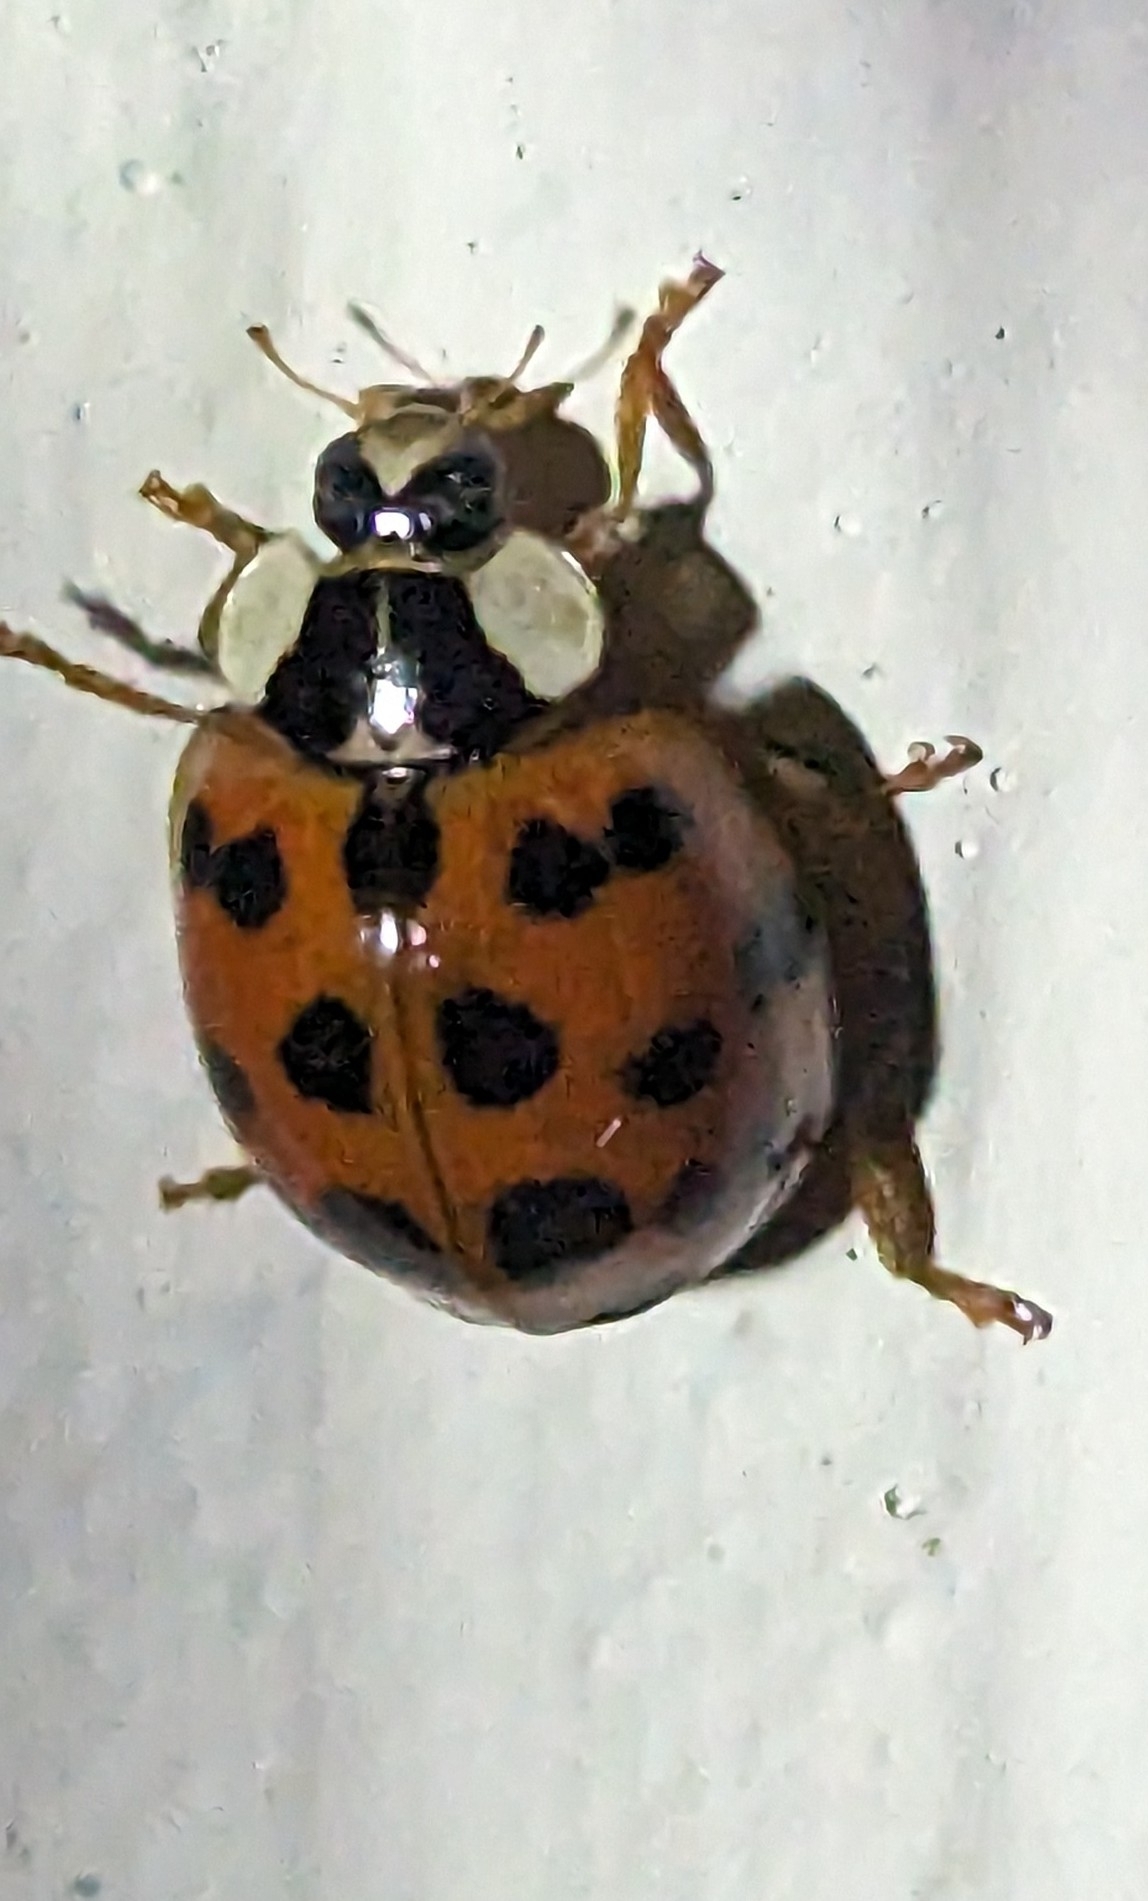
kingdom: Animalia
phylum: Arthropoda
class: Insecta
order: Coleoptera
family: Coccinellidae
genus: Harmonia
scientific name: Harmonia axyridis
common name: Harlequin ladybird
